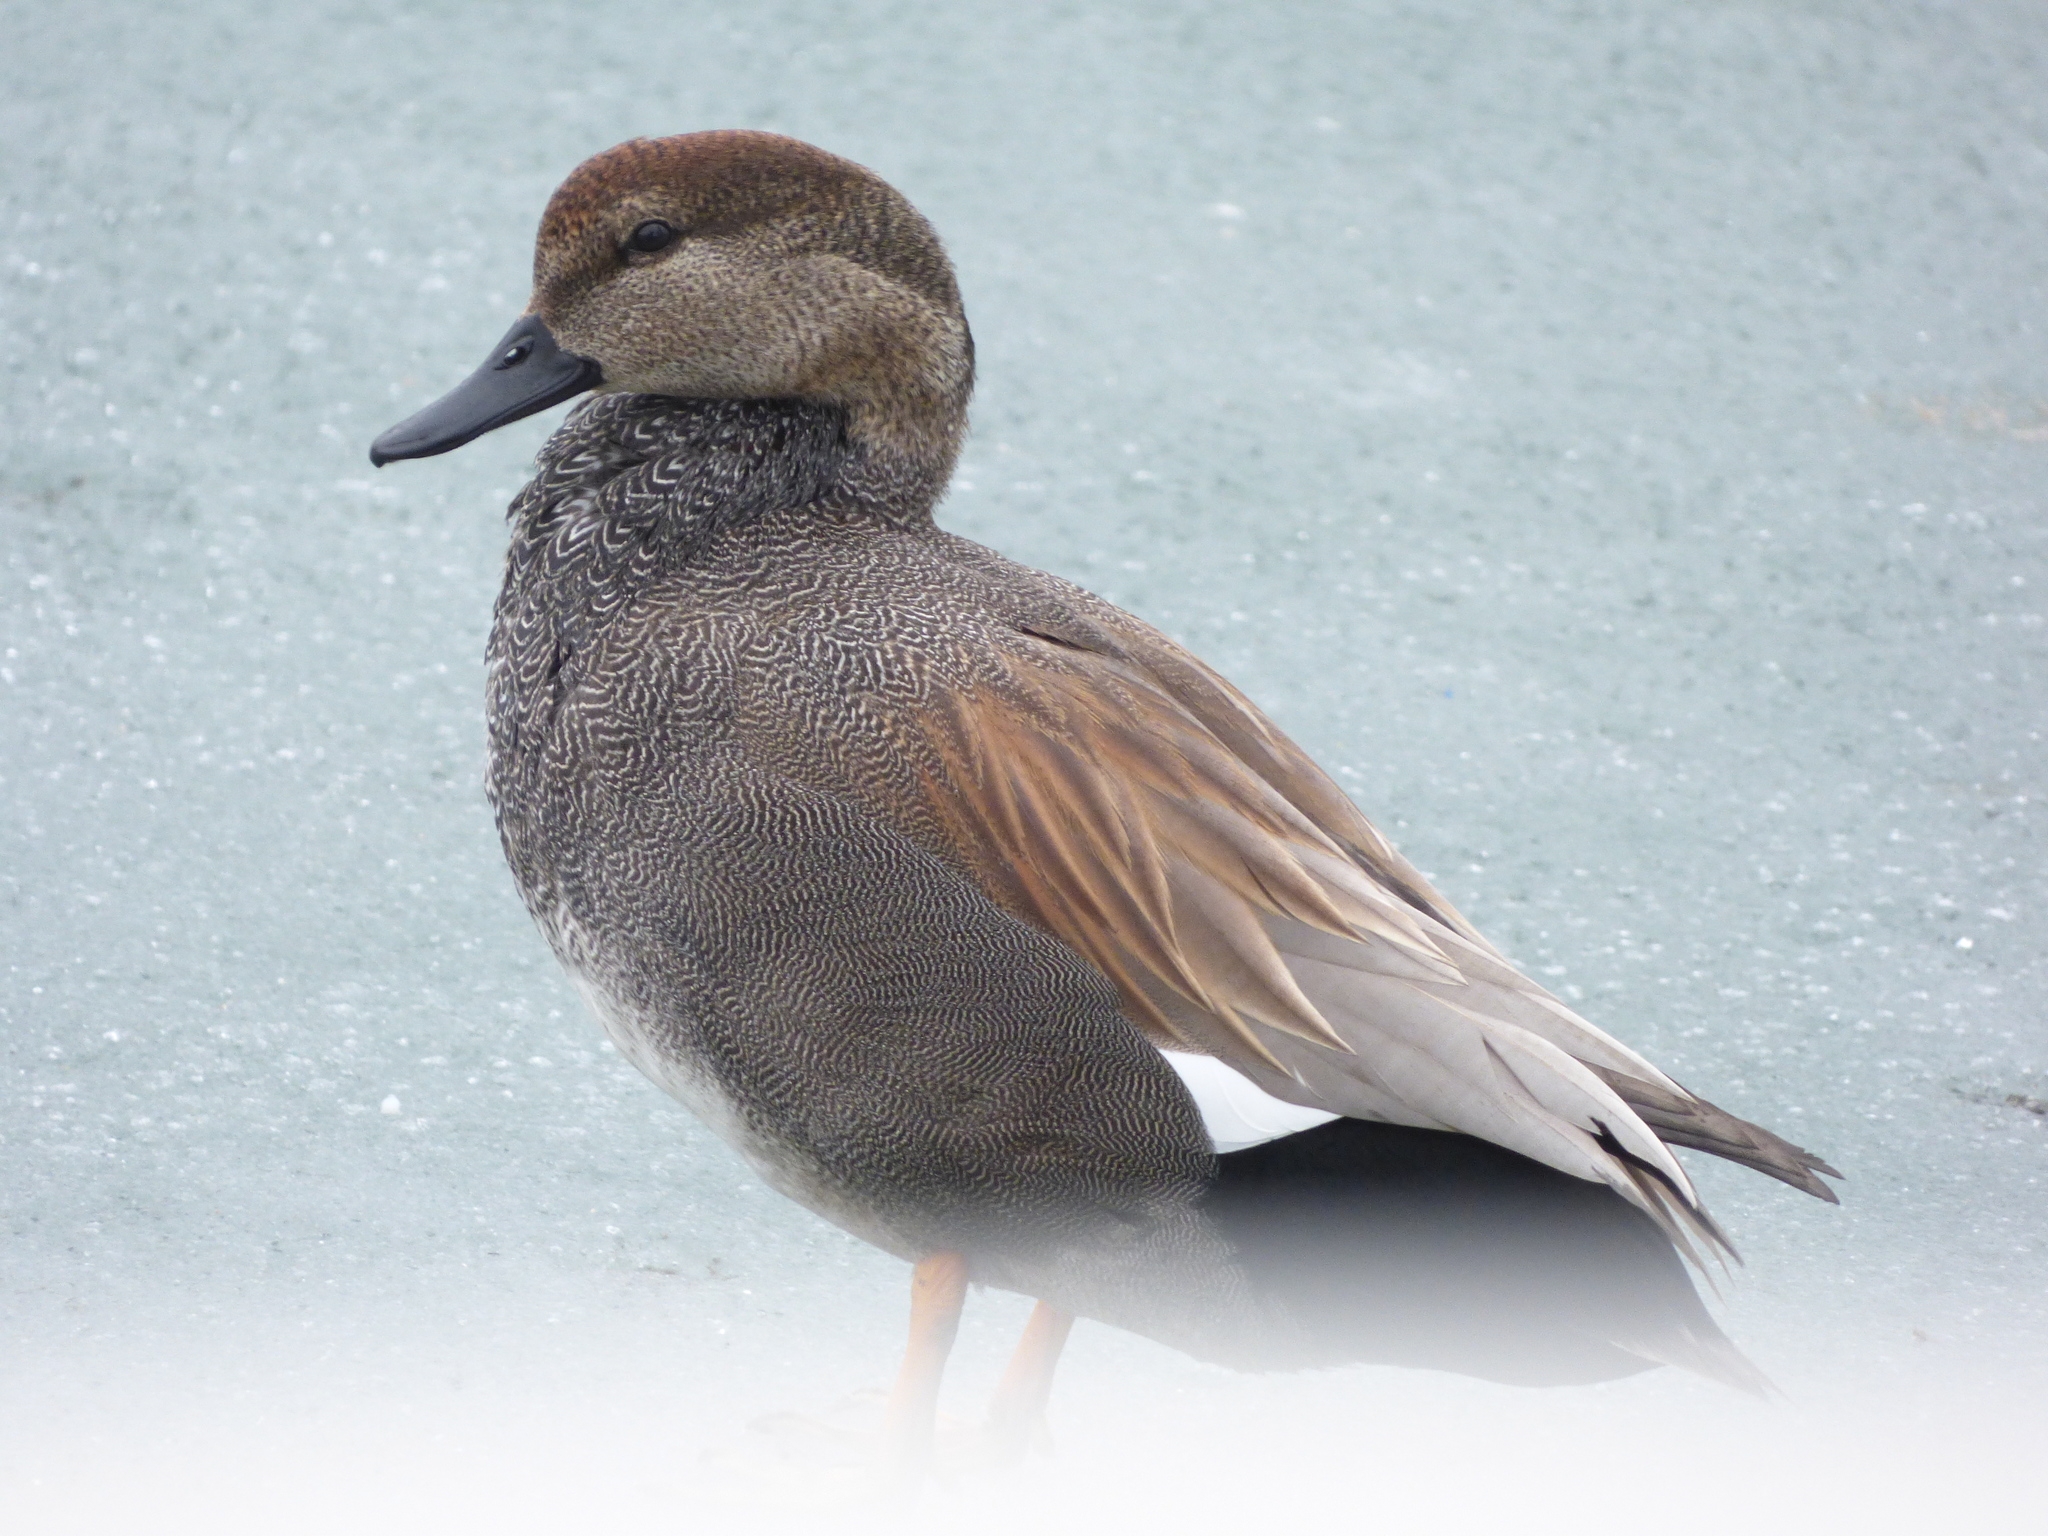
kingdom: Animalia
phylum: Chordata
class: Aves
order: Anseriformes
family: Anatidae
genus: Mareca
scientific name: Mareca strepera
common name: Gadwall
